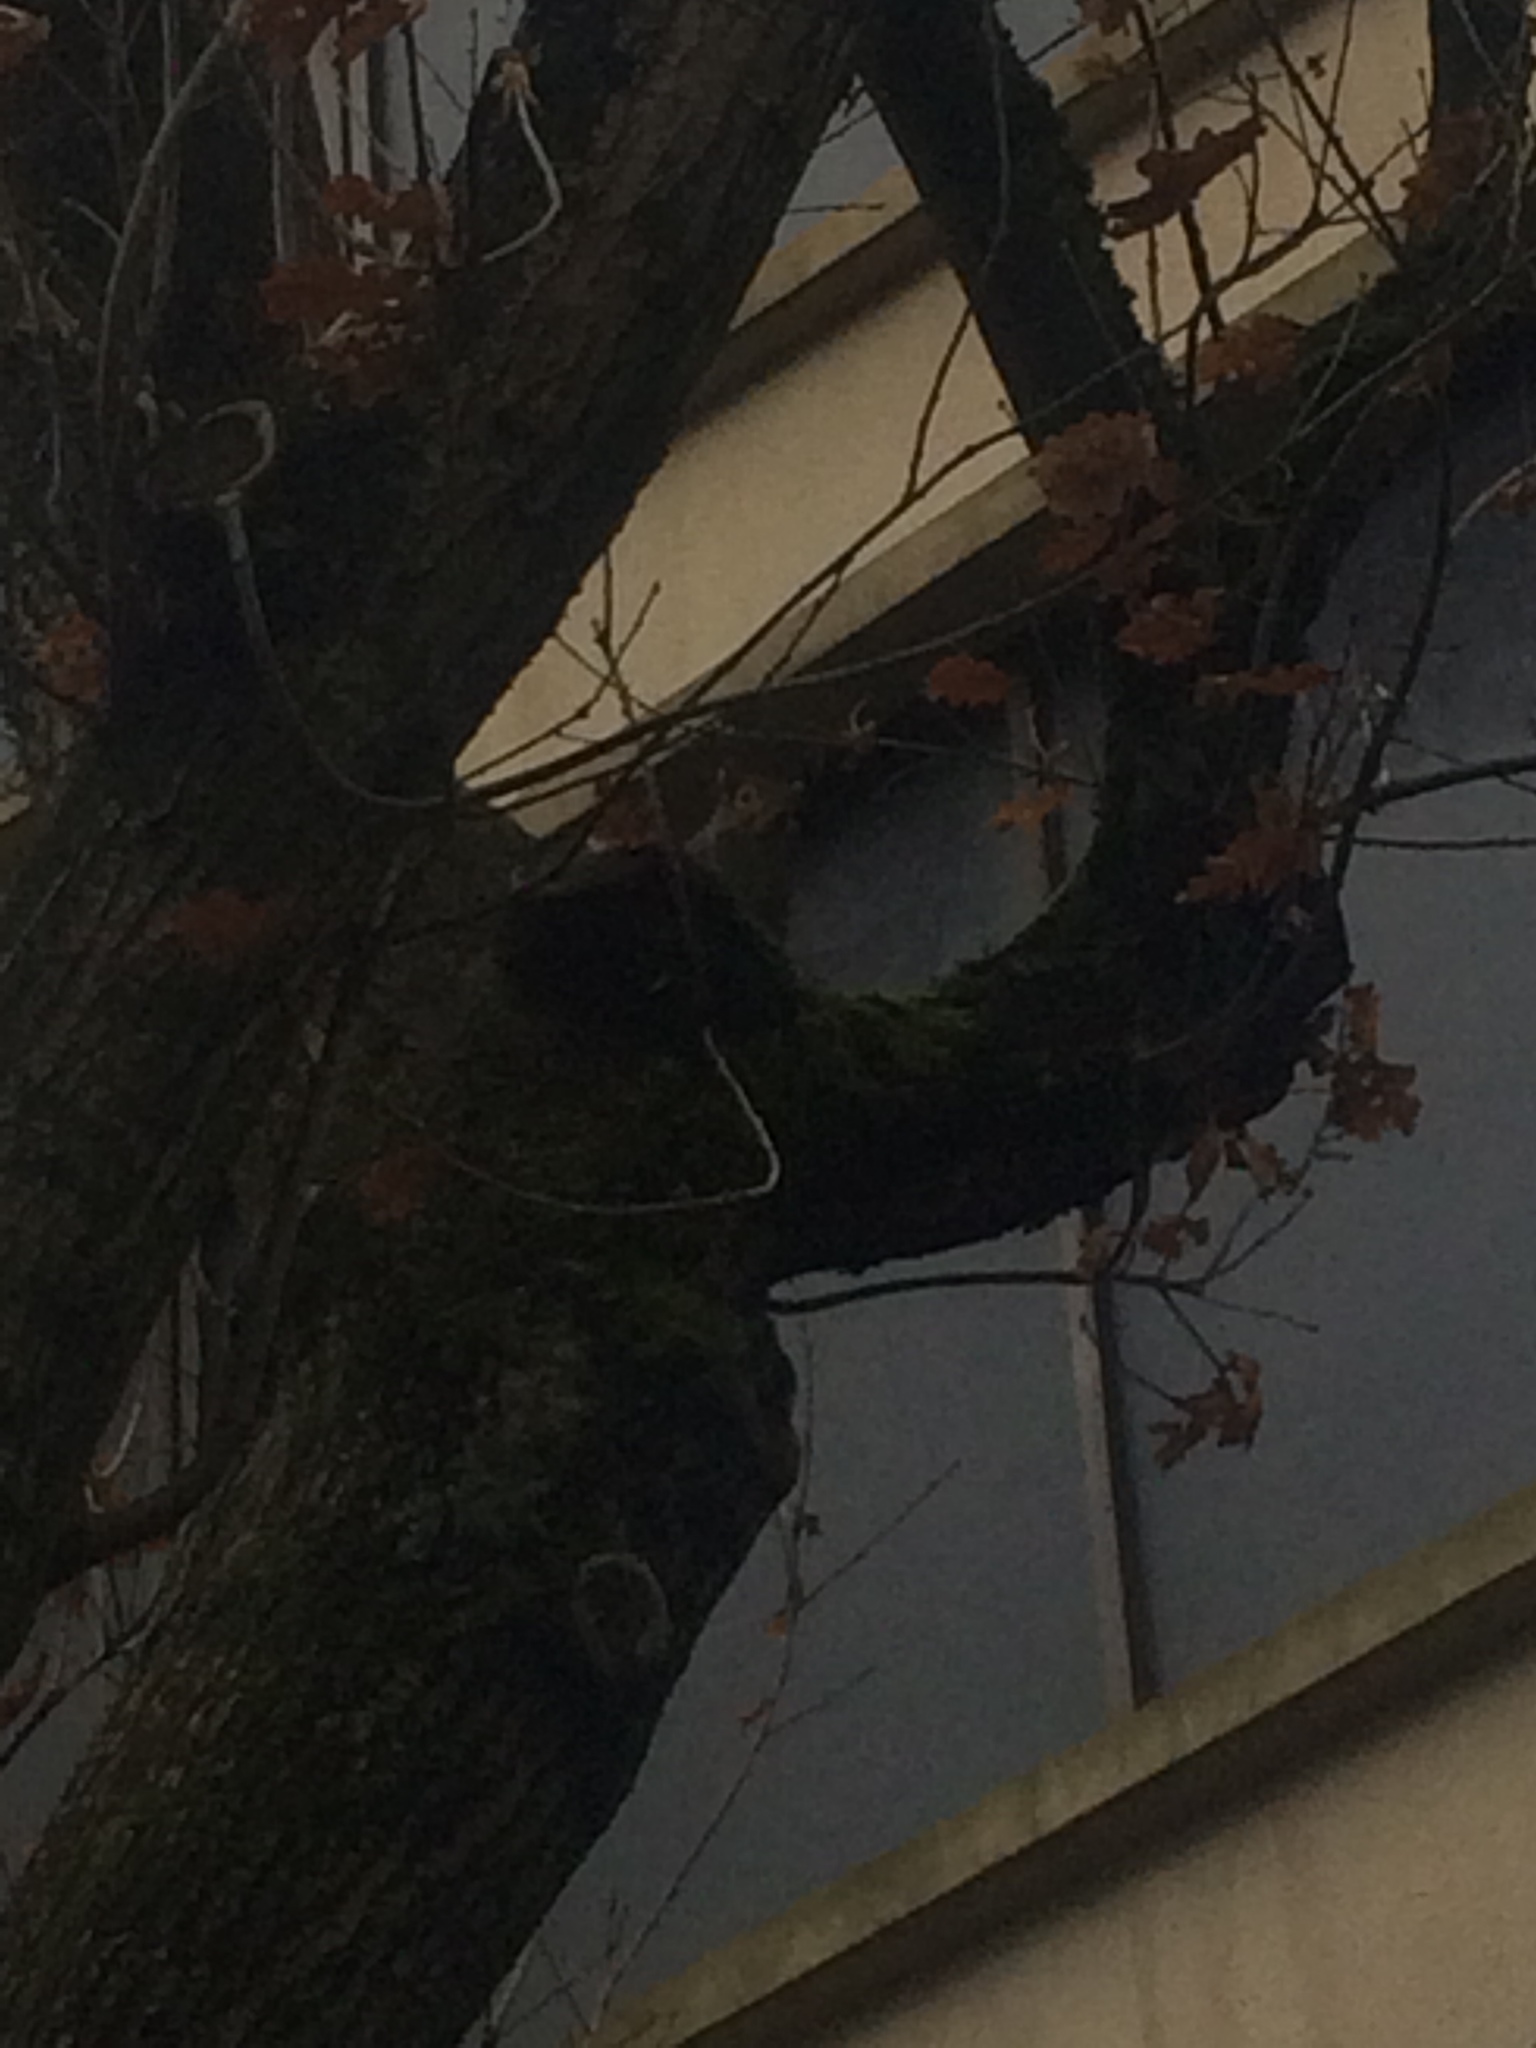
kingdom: Animalia
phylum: Chordata
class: Mammalia
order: Rodentia
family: Sciuridae
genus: Sciurus
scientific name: Sciurus carolinensis
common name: Eastern gray squirrel
